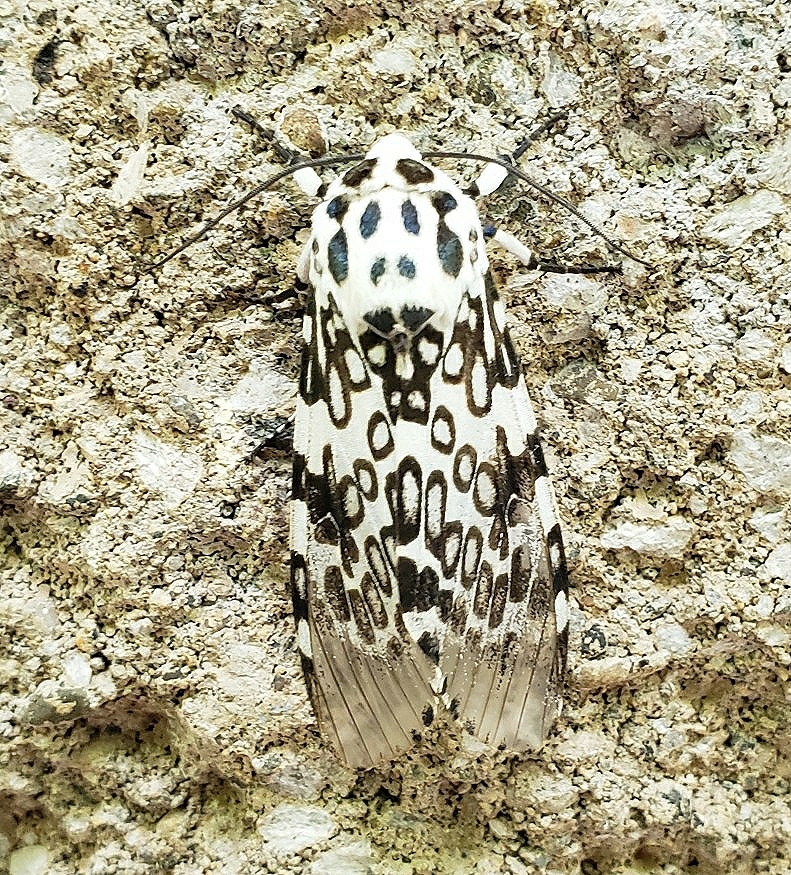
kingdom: Animalia
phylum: Arthropoda
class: Insecta
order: Lepidoptera
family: Erebidae
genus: Hypercompe
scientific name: Hypercompe scribonia
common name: Giant leopard moth
